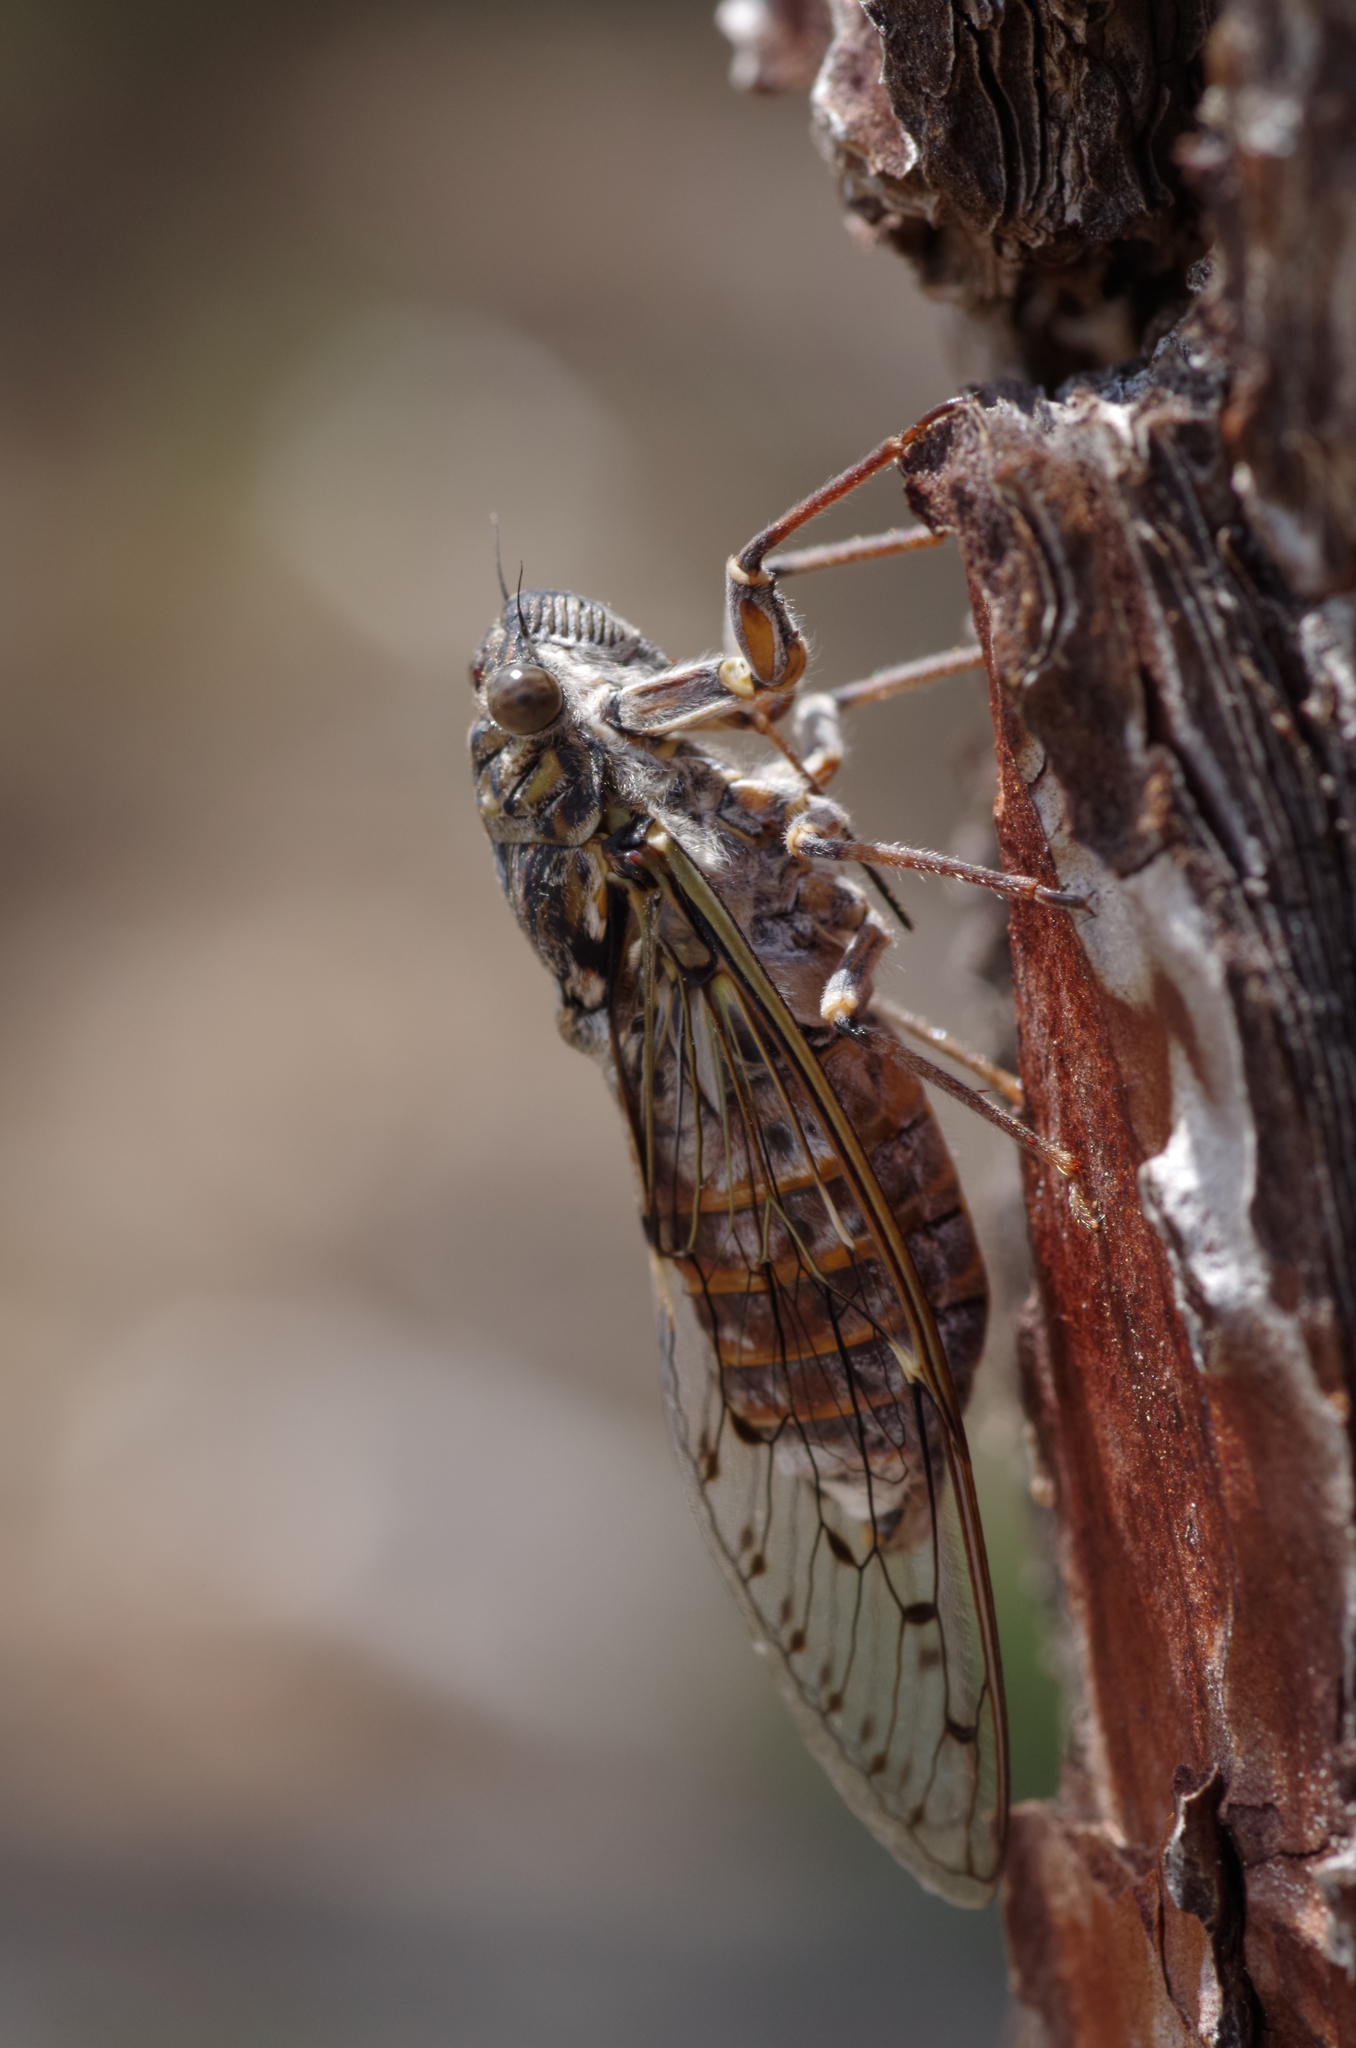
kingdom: Animalia
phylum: Arthropoda
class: Insecta
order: Hemiptera
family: Cicadidae
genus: Cicada
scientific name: Cicada orni
